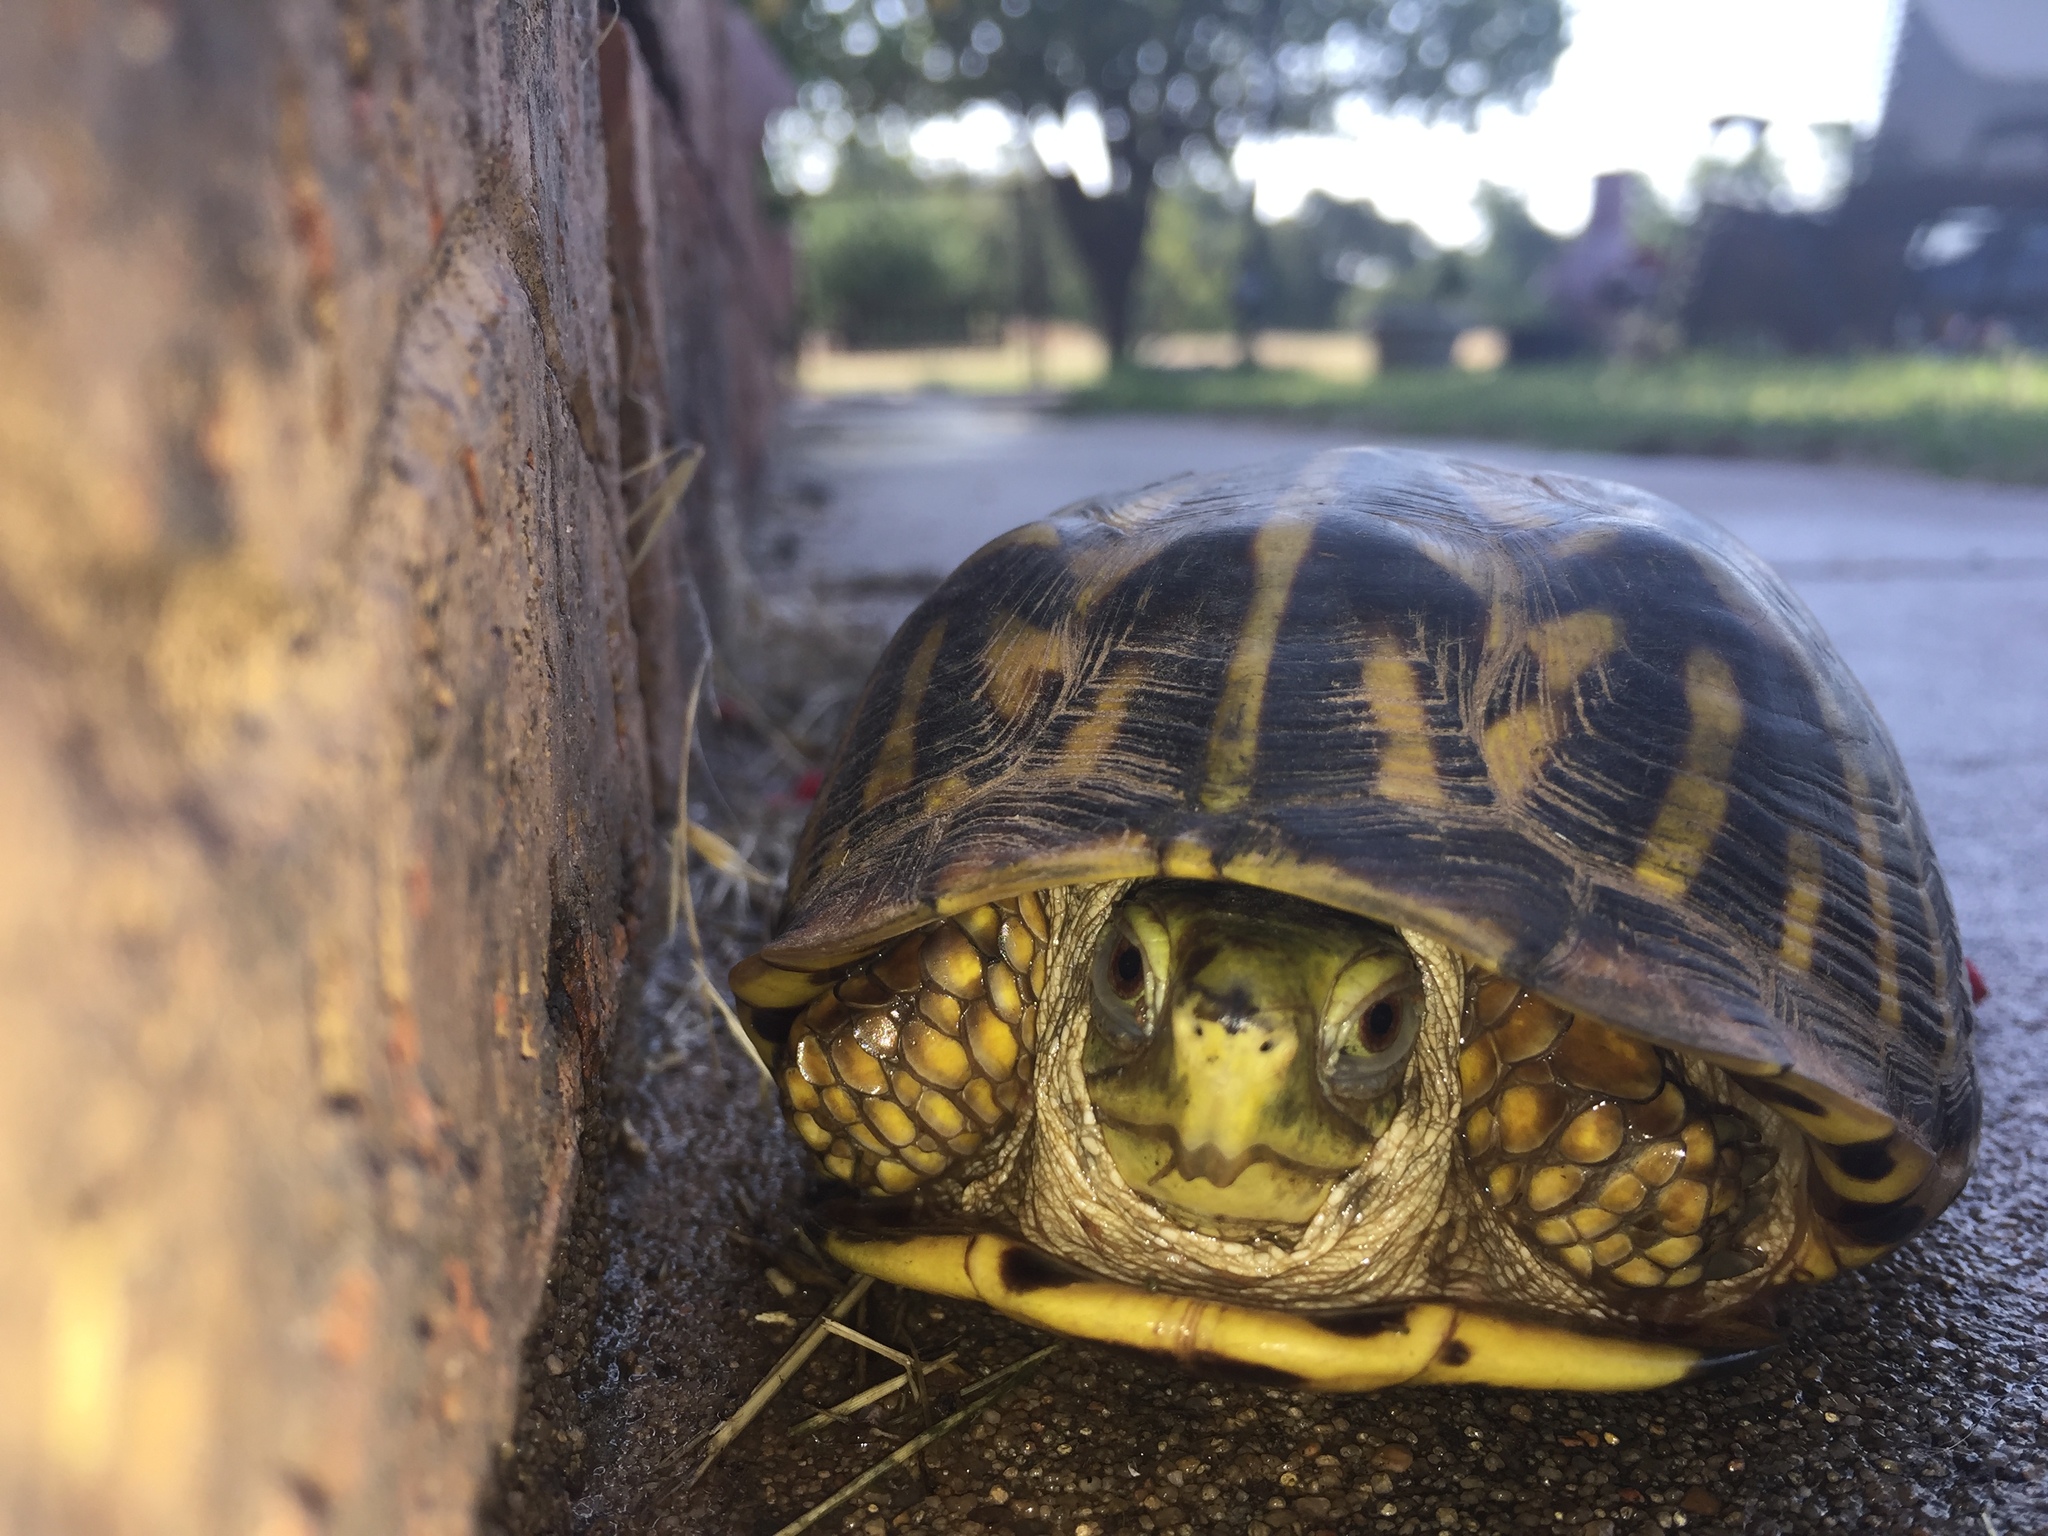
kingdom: Animalia
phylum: Chordata
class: Testudines
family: Emydidae
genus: Terrapene
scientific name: Terrapene ornata
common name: Western box turtle
